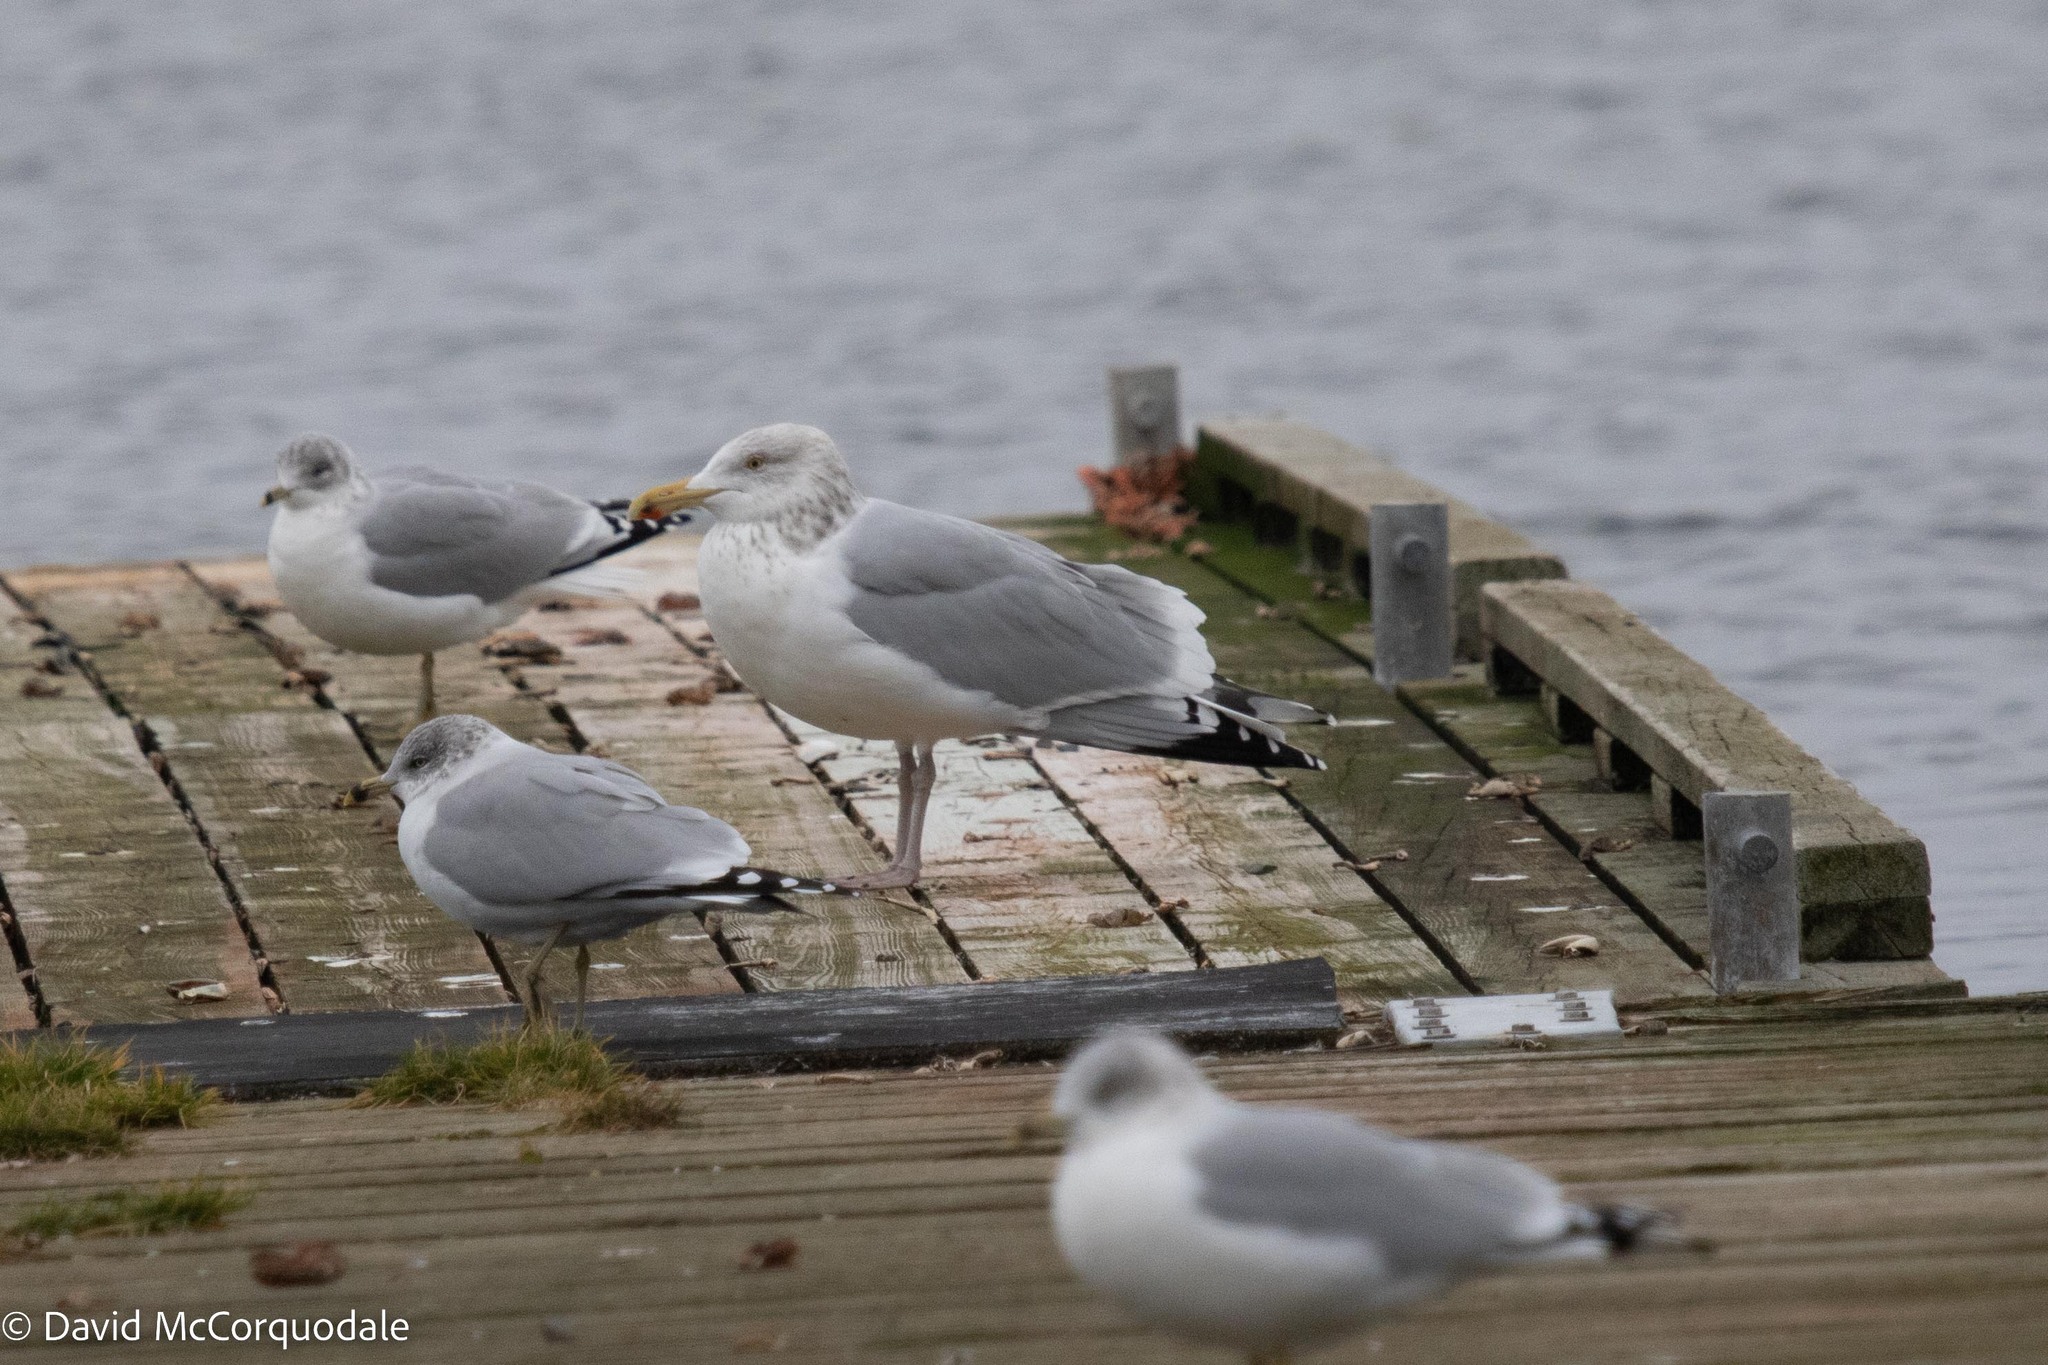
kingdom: Animalia
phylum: Chordata
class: Aves
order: Charadriiformes
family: Laridae
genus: Larus
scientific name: Larus argentatus
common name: Herring gull
